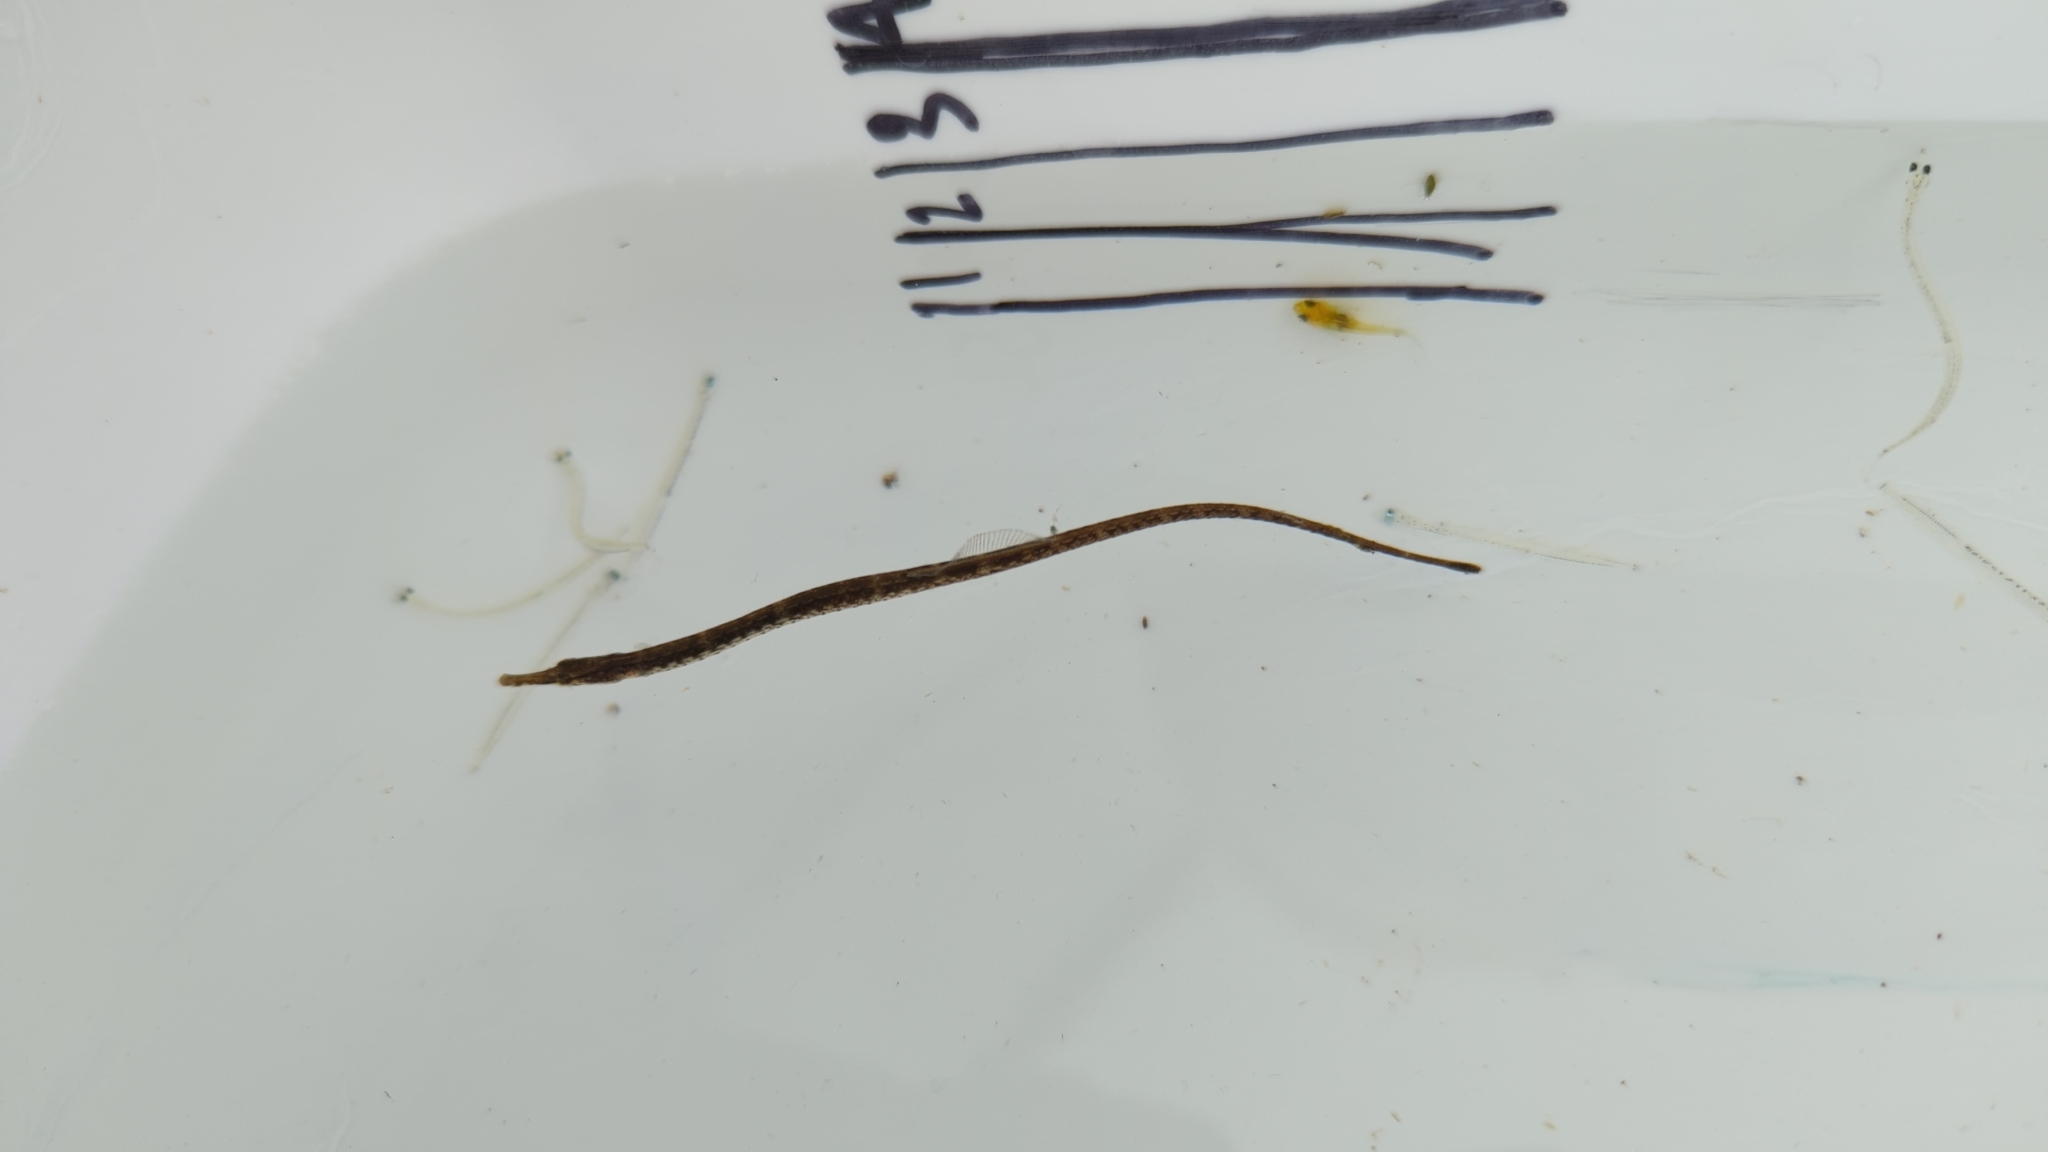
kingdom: Animalia
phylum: Chordata
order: Syngnathiformes
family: Syngnathidae
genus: Syngnathus
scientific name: Syngnathus californiensis
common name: Great pipefish
